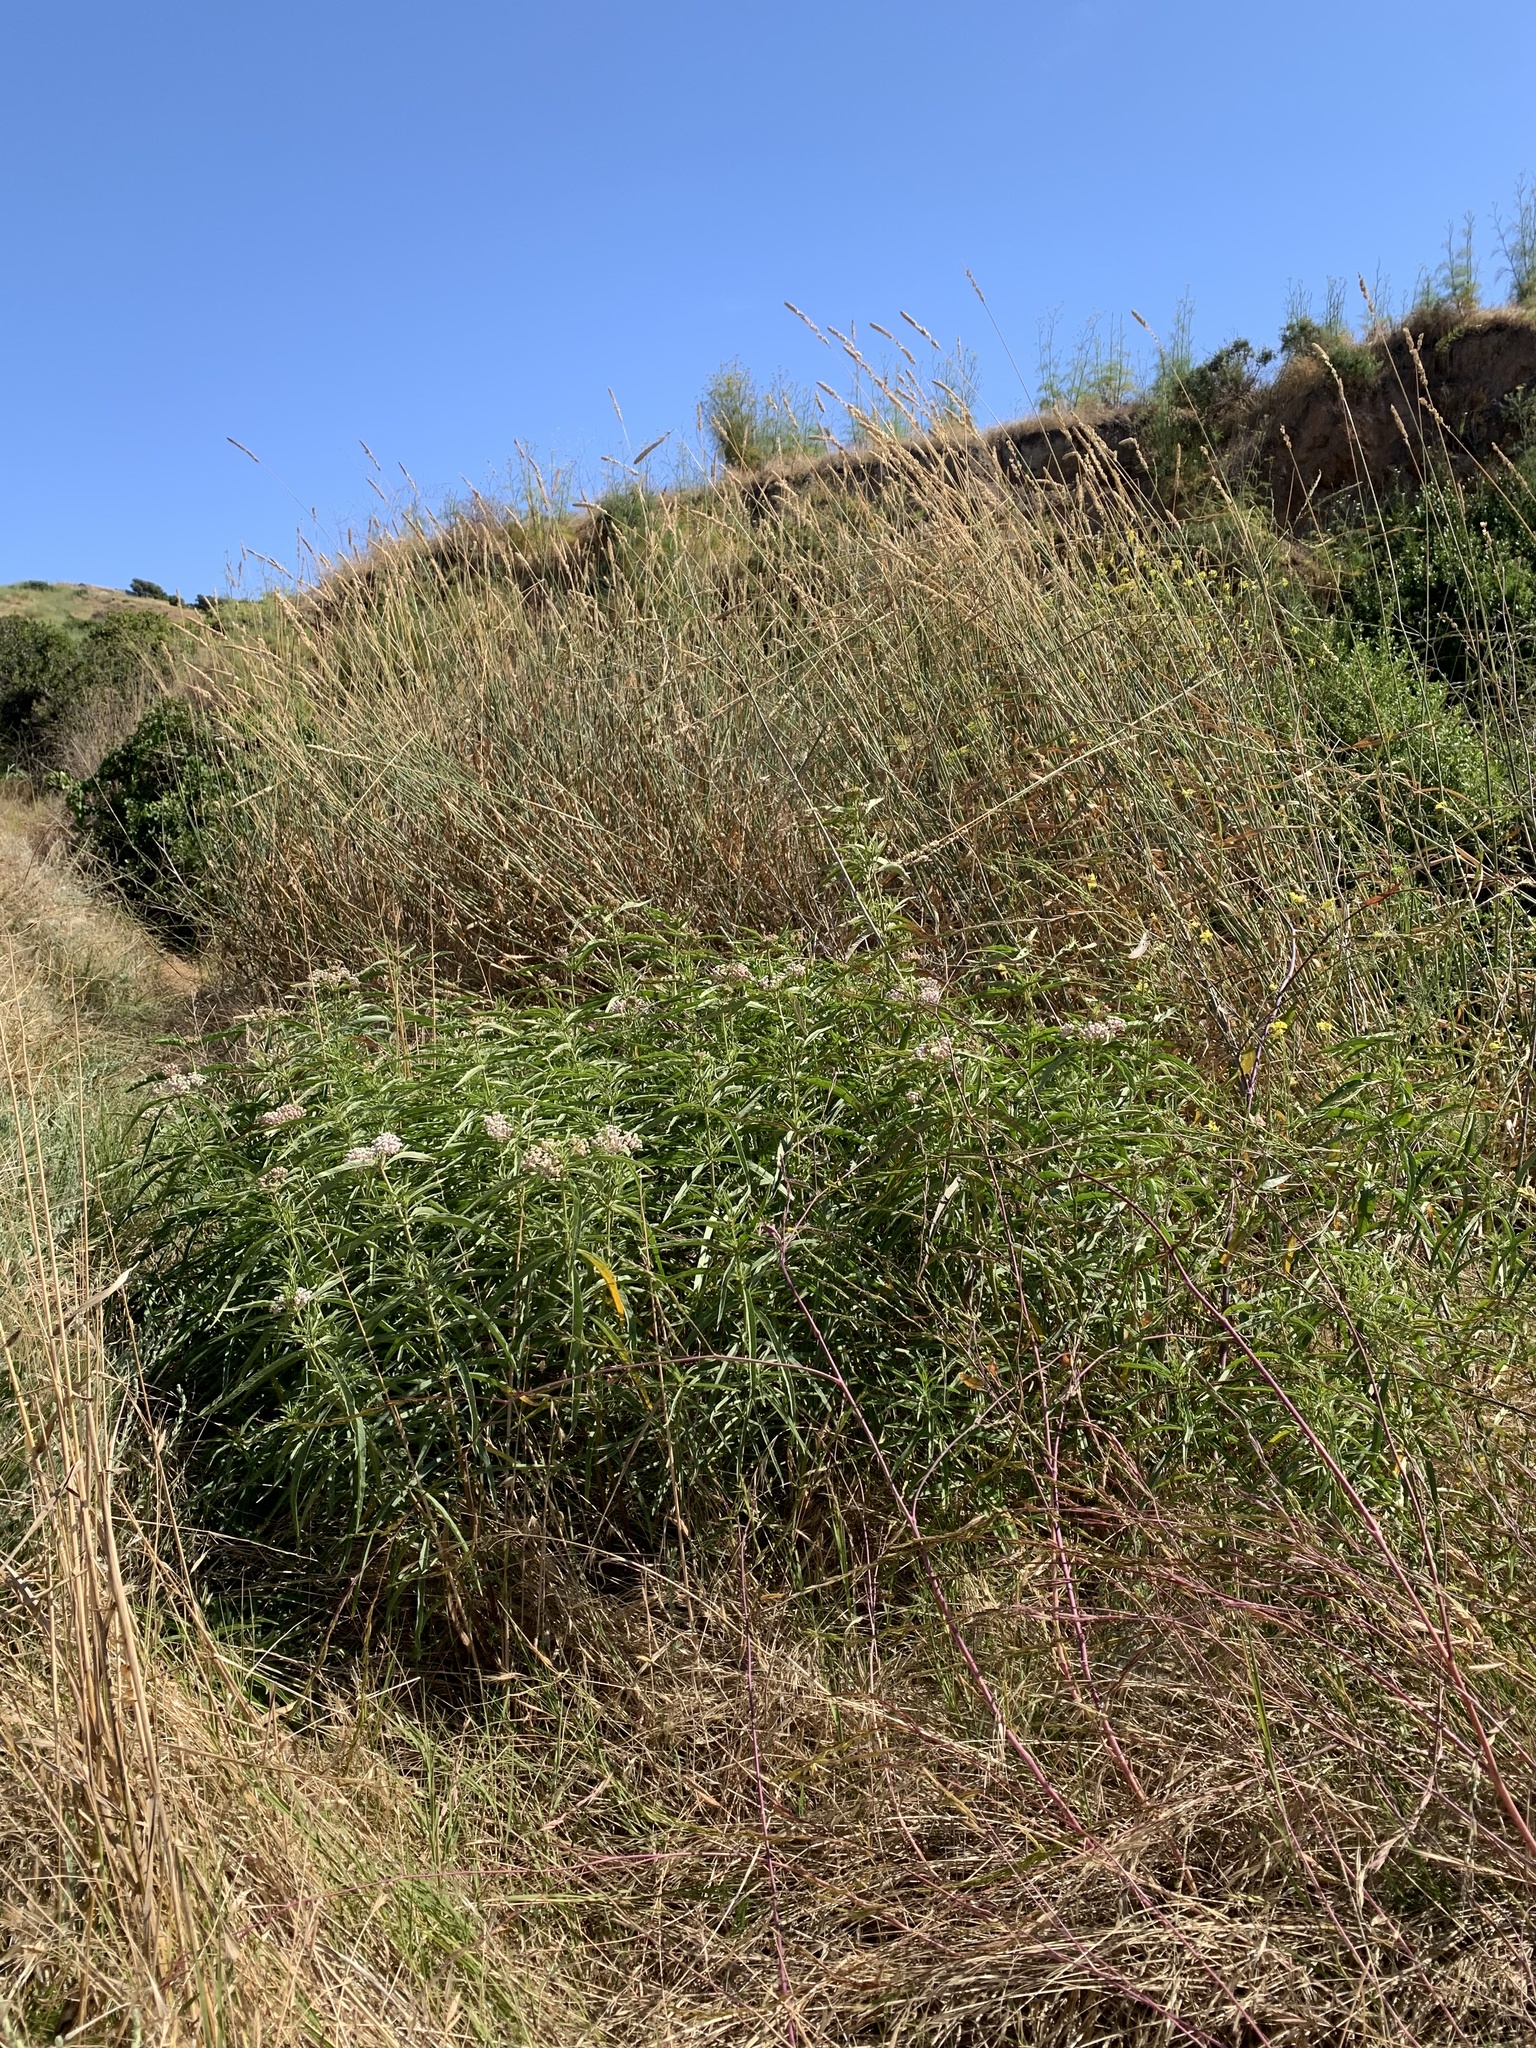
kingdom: Plantae
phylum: Tracheophyta
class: Magnoliopsida
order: Gentianales
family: Apocynaceae
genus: Asclepias
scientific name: Asclepias fascicularis
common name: Mexican milkweed
